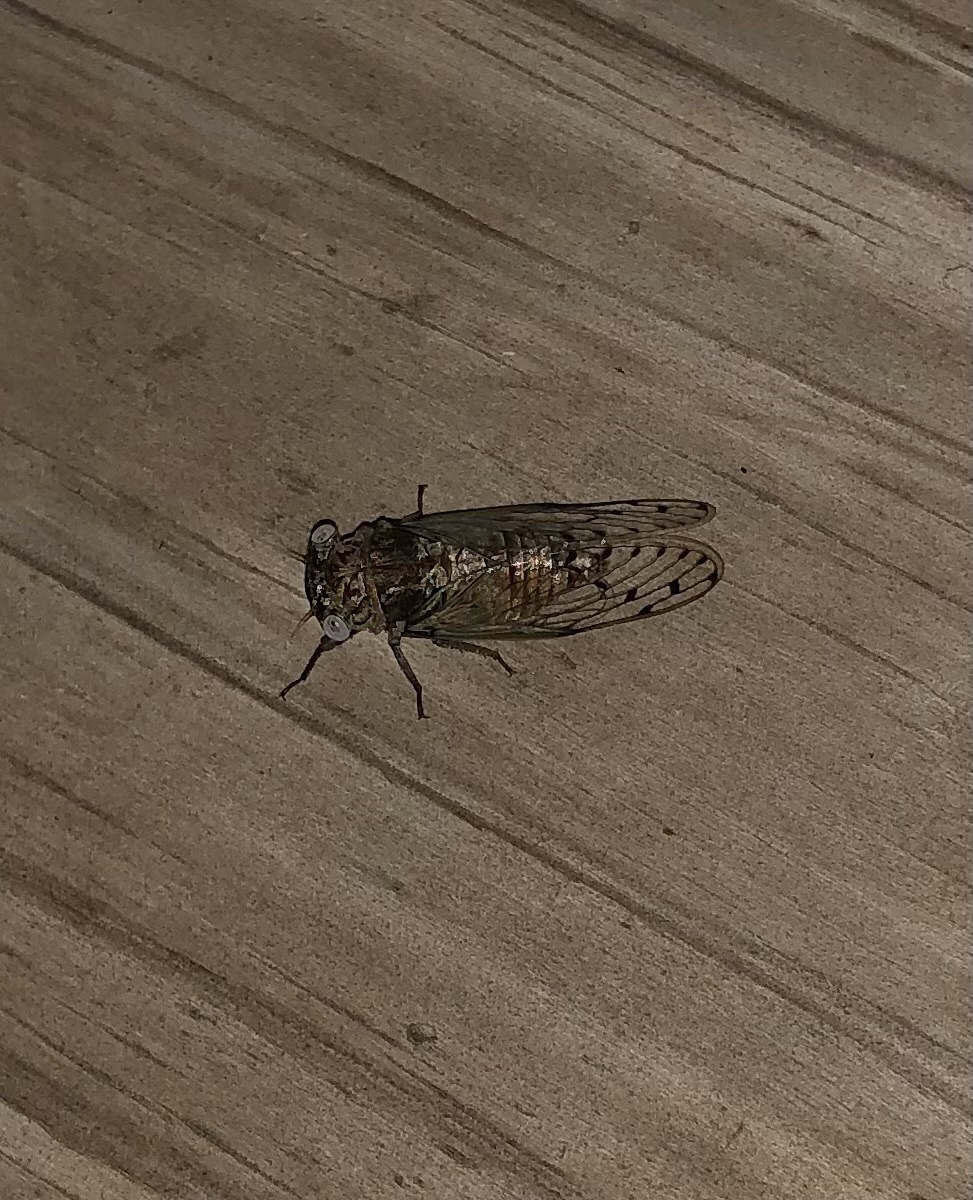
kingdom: Animalia
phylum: Arthropoda
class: Insecta
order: Hemiptera
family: Cicadidae
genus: Pacarina
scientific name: Pacarina puella
